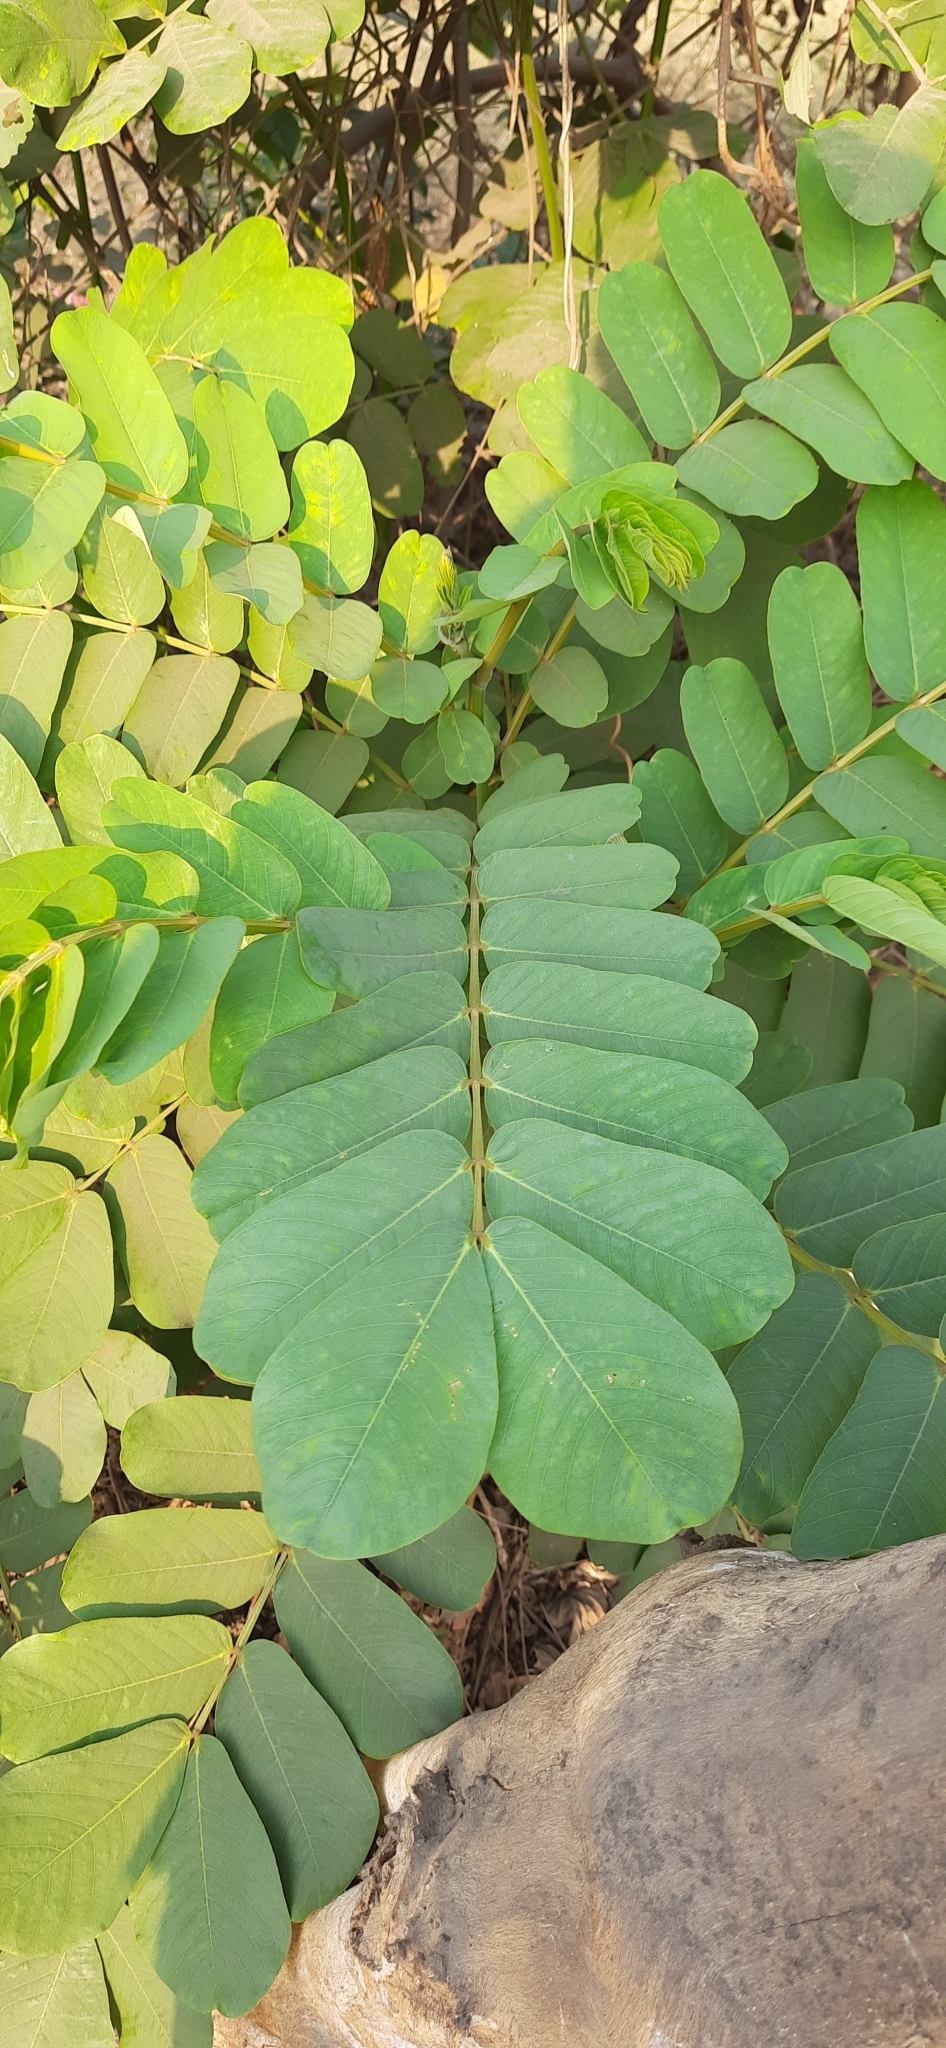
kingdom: Plantae
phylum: Tracheophyta
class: Magnoliopsida
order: Fabales
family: Fabaceae
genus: Senna
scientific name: Senna alata
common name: Emperor's candlesticks
